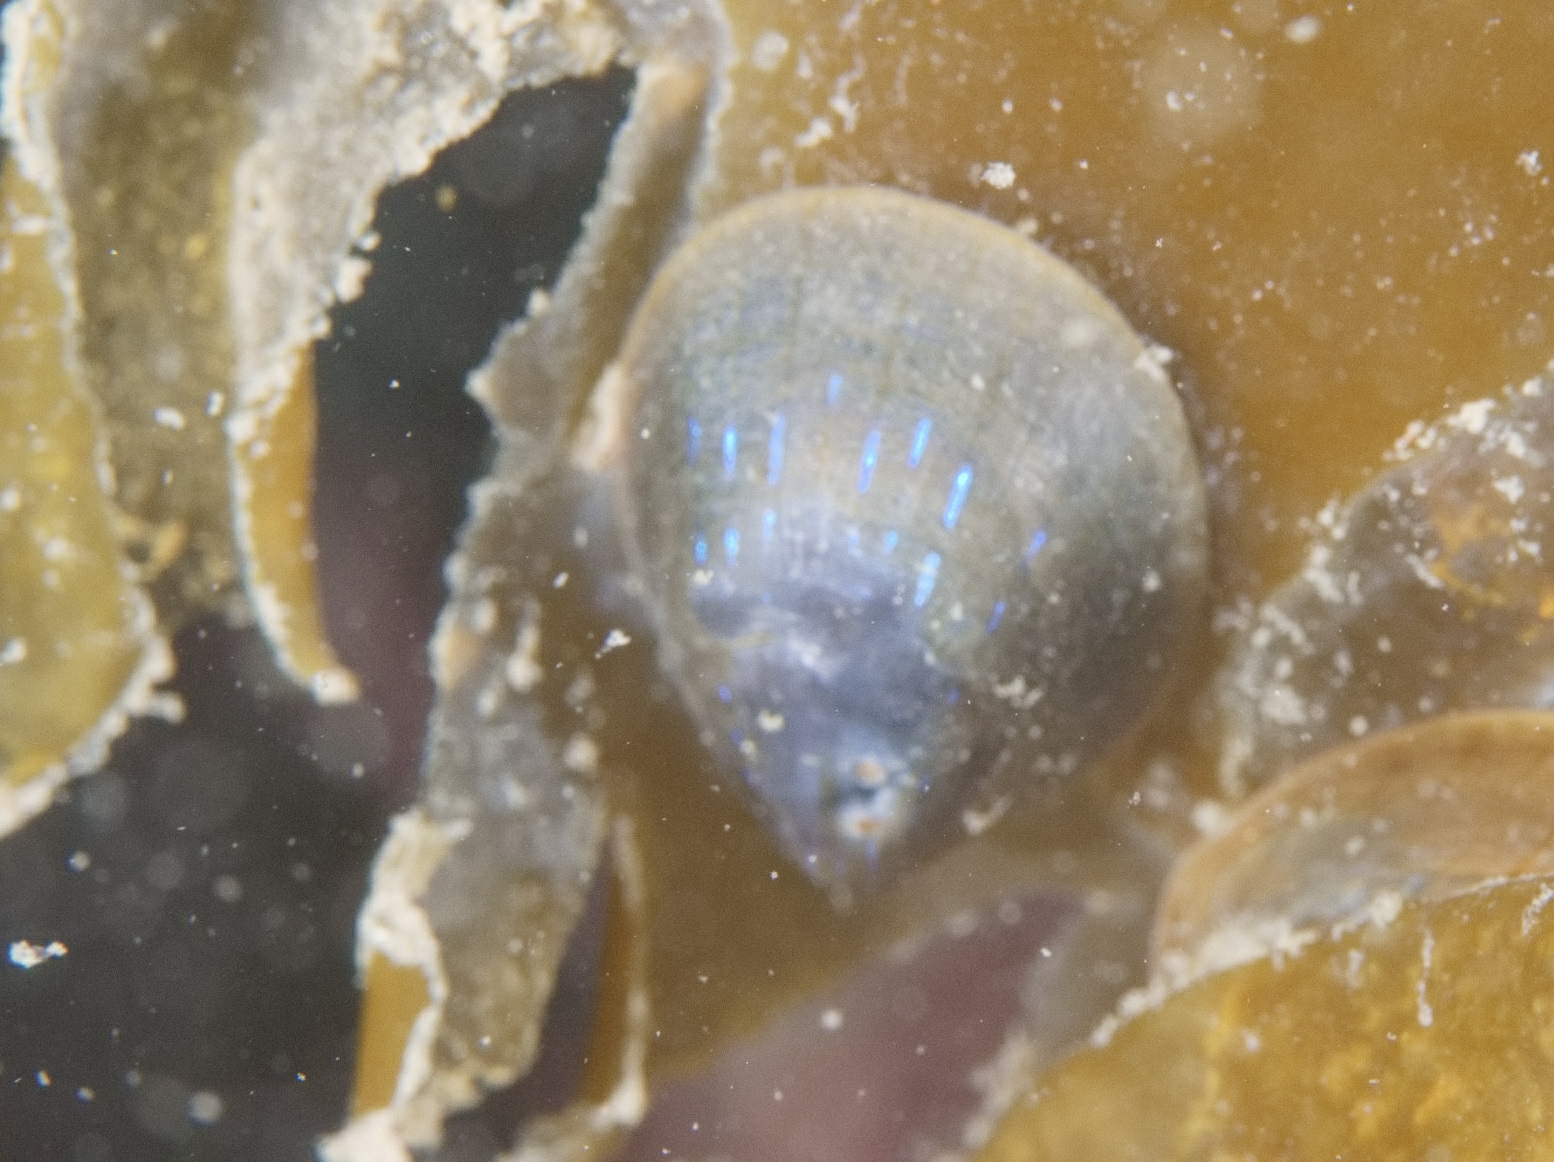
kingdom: Animalia
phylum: Mollusca
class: Gastropoda
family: Patellidae
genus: Patella
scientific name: Patella pellucida
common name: Blue-rayed limpet
